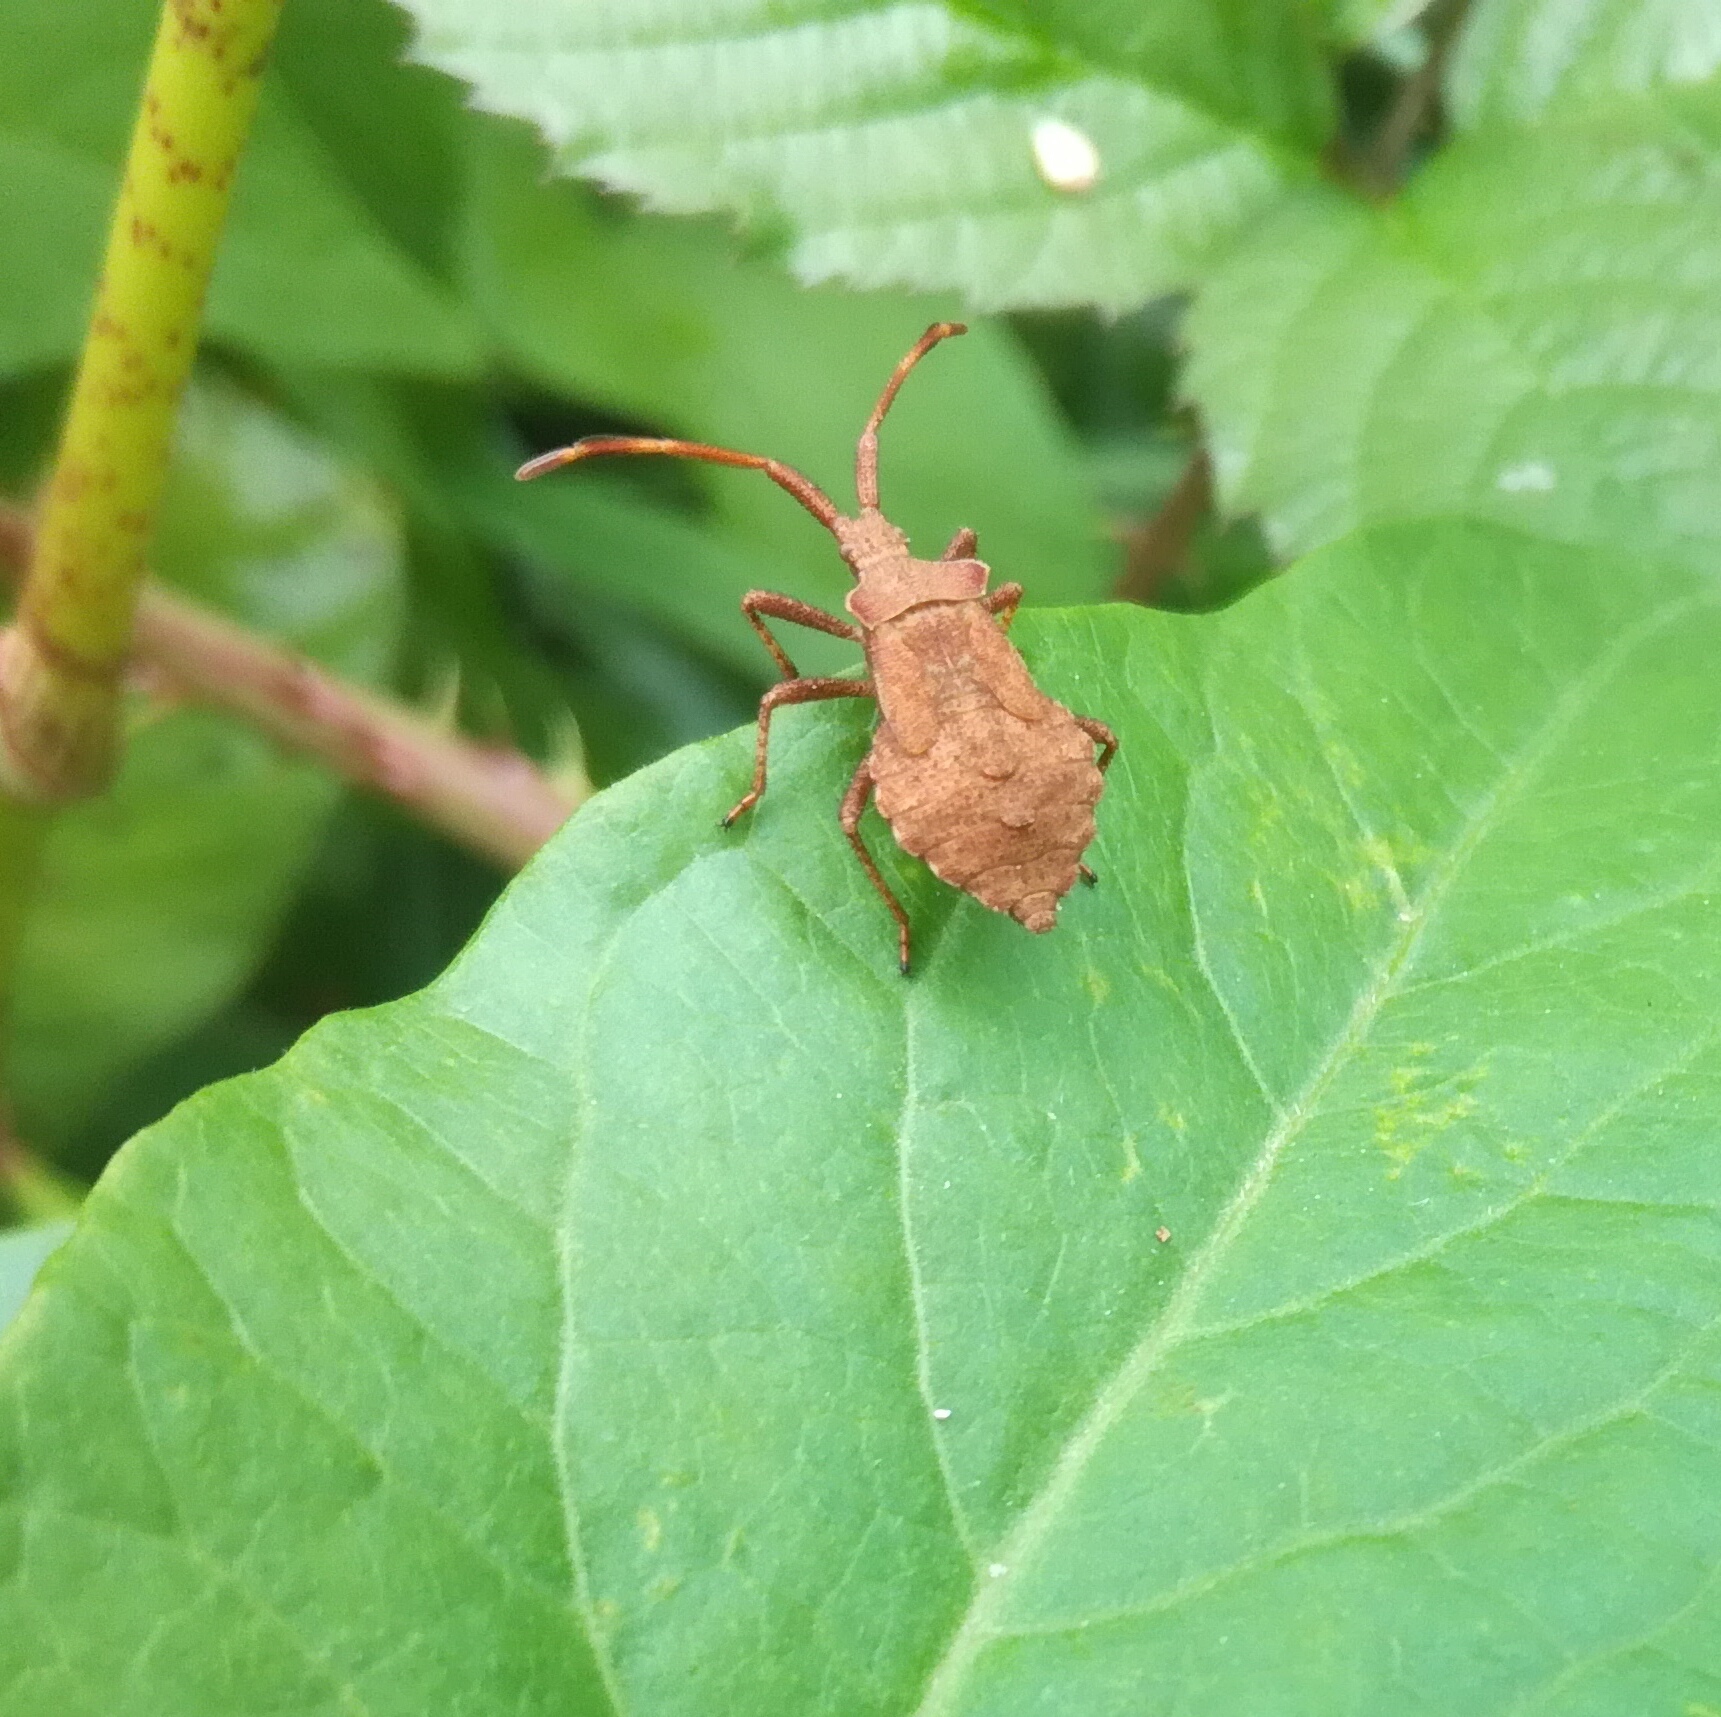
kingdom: Animalia
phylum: Arthropoda
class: Insecta
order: Hemiptera
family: Coreidae
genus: Coreus
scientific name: Coreus marginatus
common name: Dock bug
